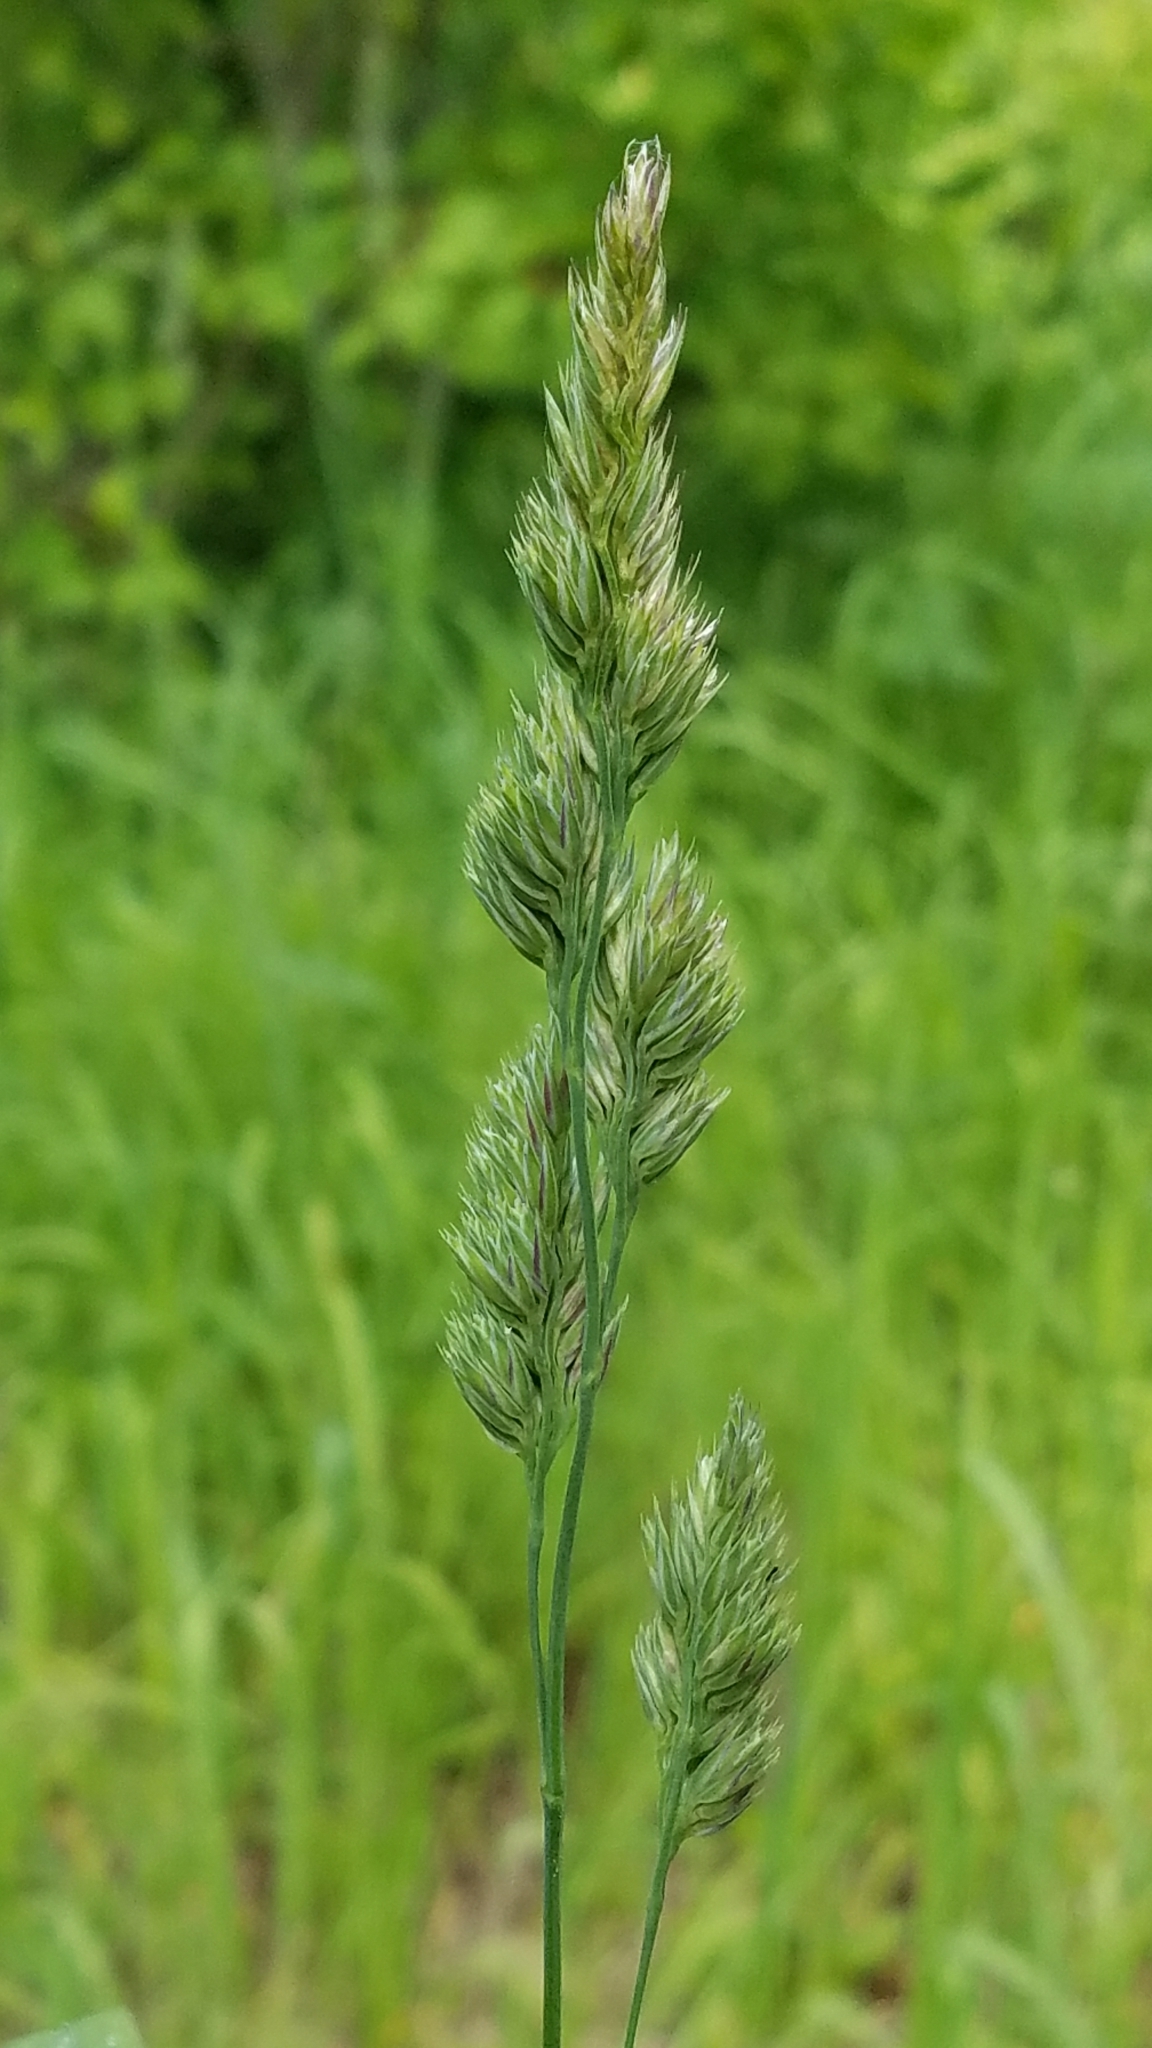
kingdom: Plantae
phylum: Tracheophyta
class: Liliopsida
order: Poales
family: Poaceae
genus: Dactylis
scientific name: Dactylis glomerata
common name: Orchardgrass
